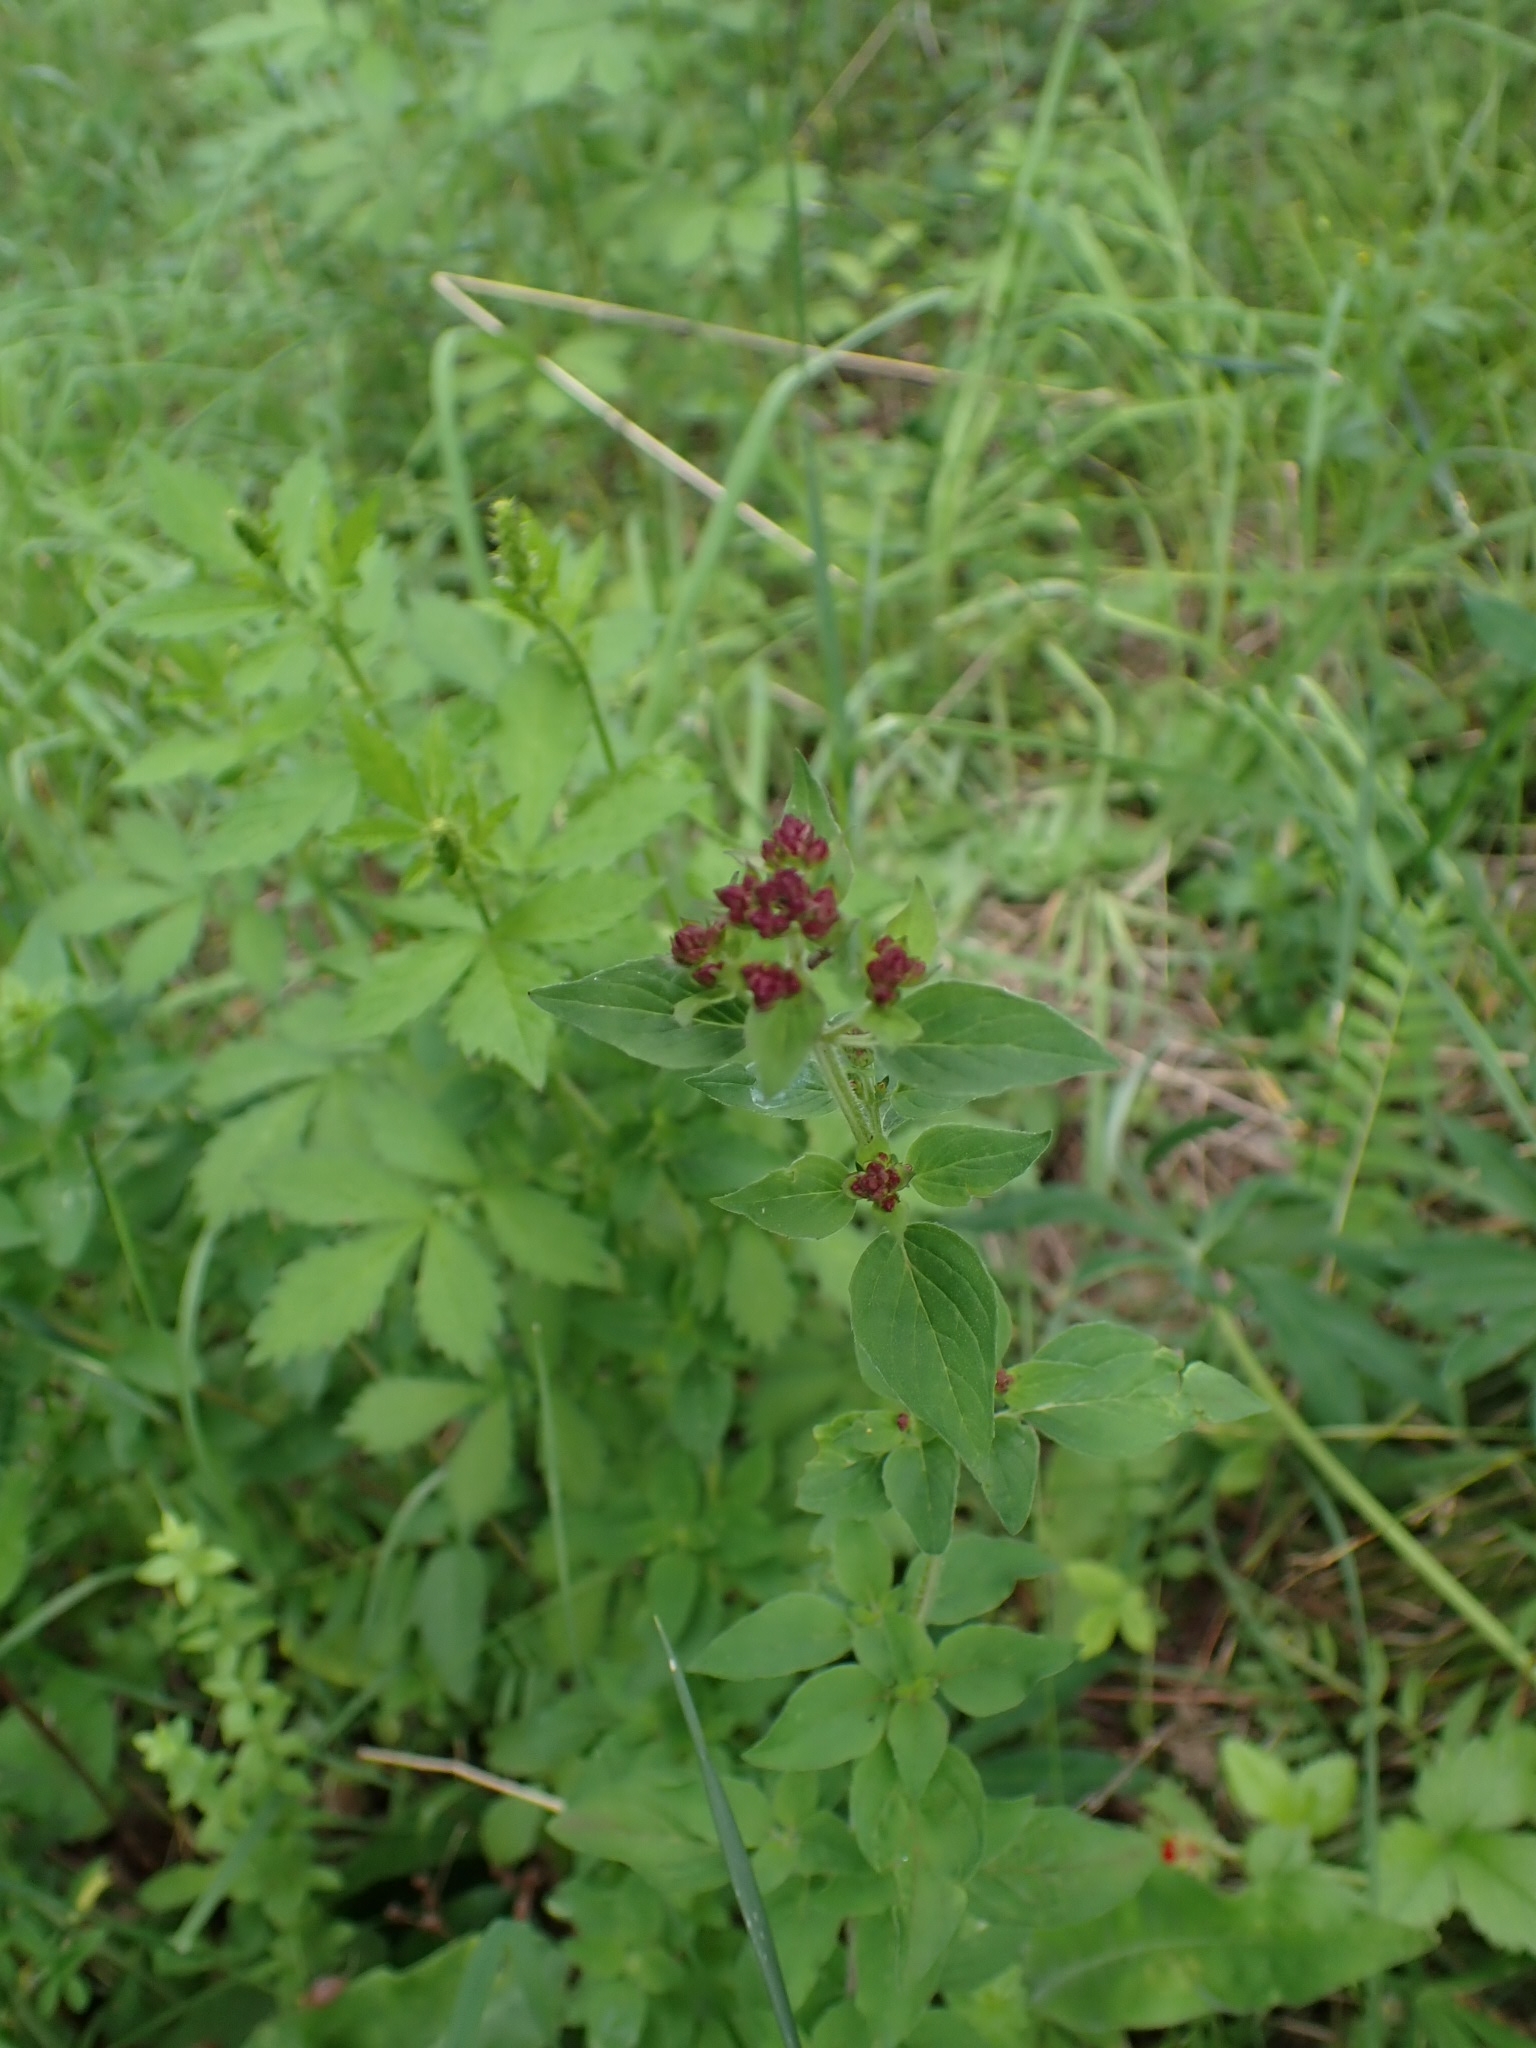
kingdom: Plantae
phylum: Tracheophyta
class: Magnoliopsida
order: Lamiales
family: Lamiaceae
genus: Origanum
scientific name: Origanum vulgare
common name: Wild marjoram
